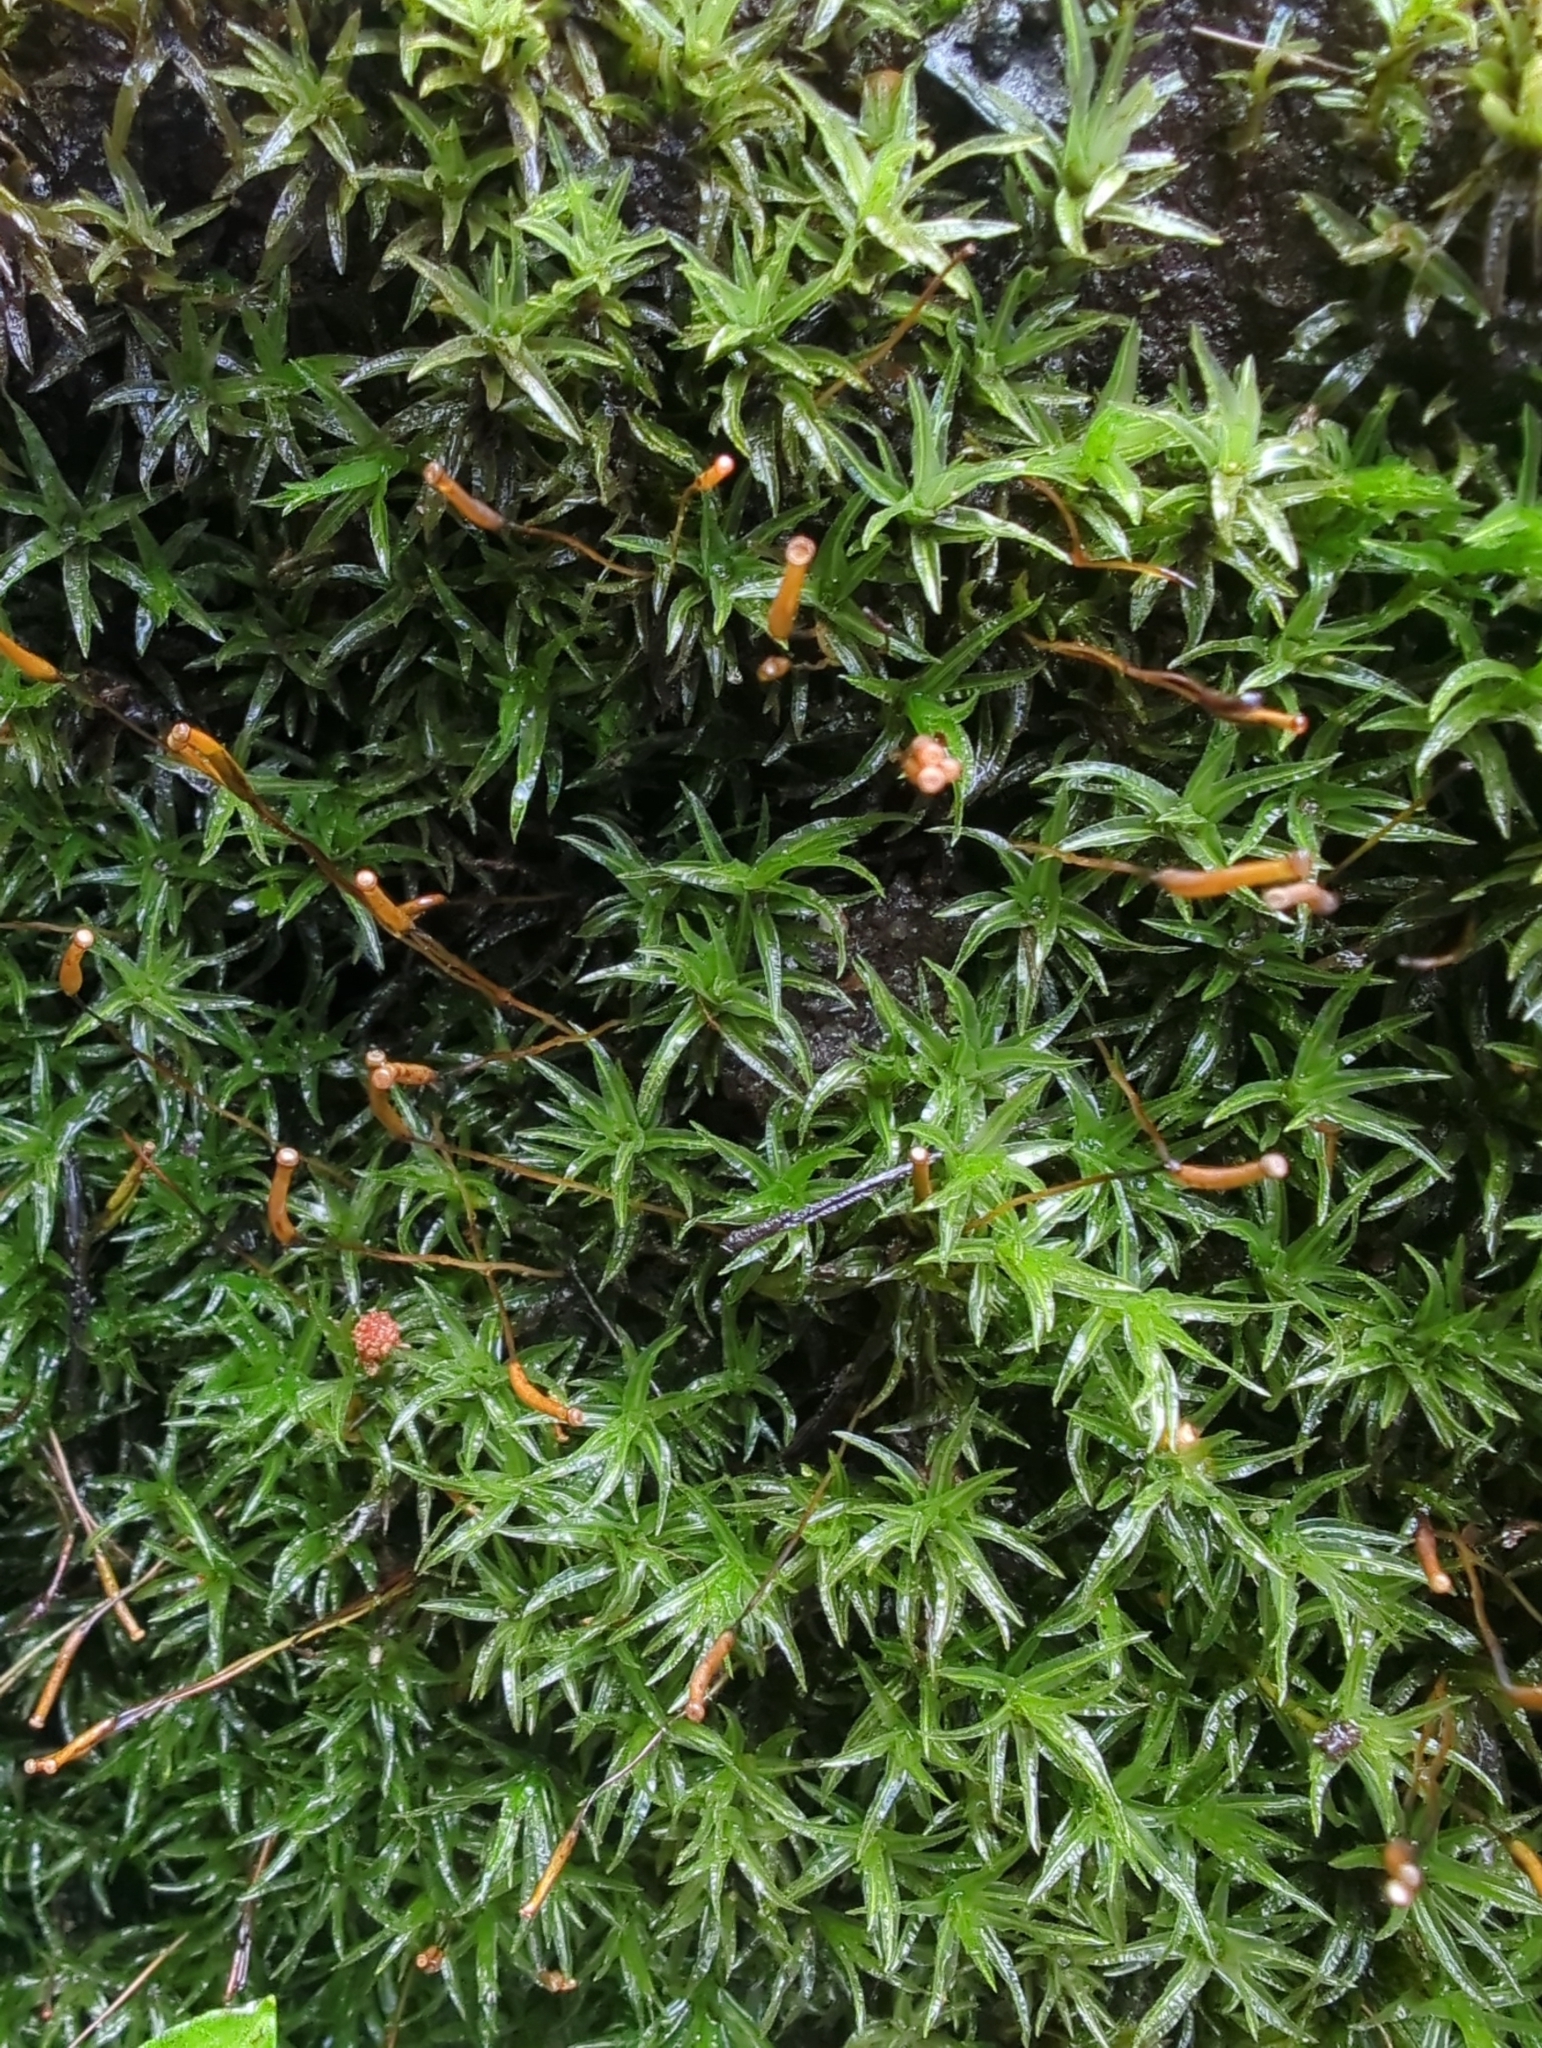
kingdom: Plantae
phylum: Bryophyta
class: Polytrichopsida
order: Polytrichales
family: Polytrichaceae
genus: Atrichum
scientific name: Atrichum androgynum
